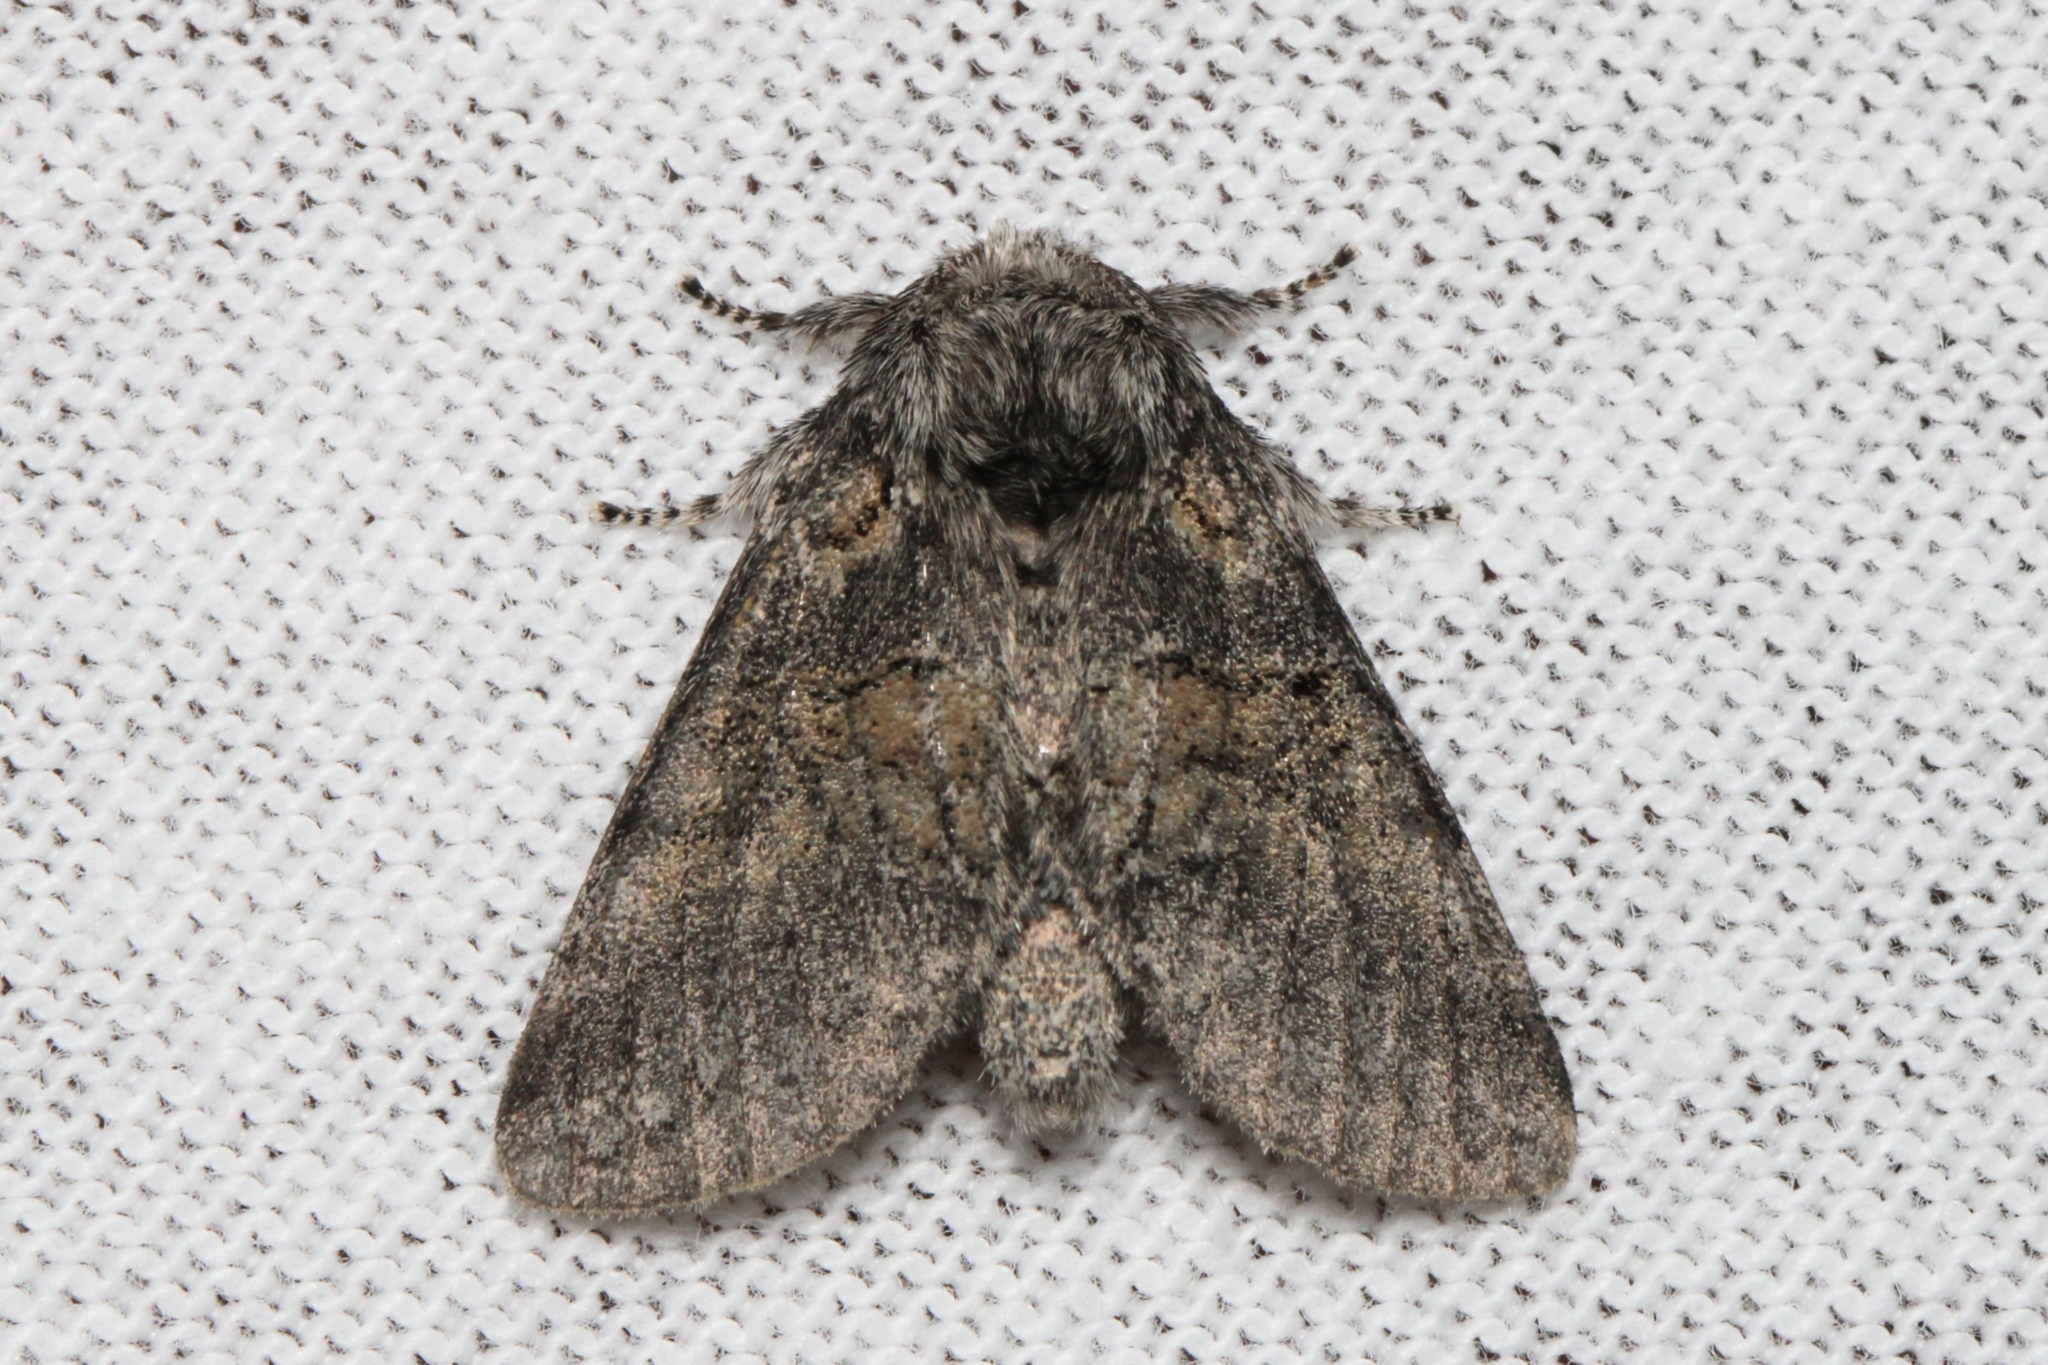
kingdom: Animalia
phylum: Arthropoda
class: Insecta
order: Lepidoptera
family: Notodontidae
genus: Gluphisia
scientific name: Gluphisia septentrionis
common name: Common gluphisia
